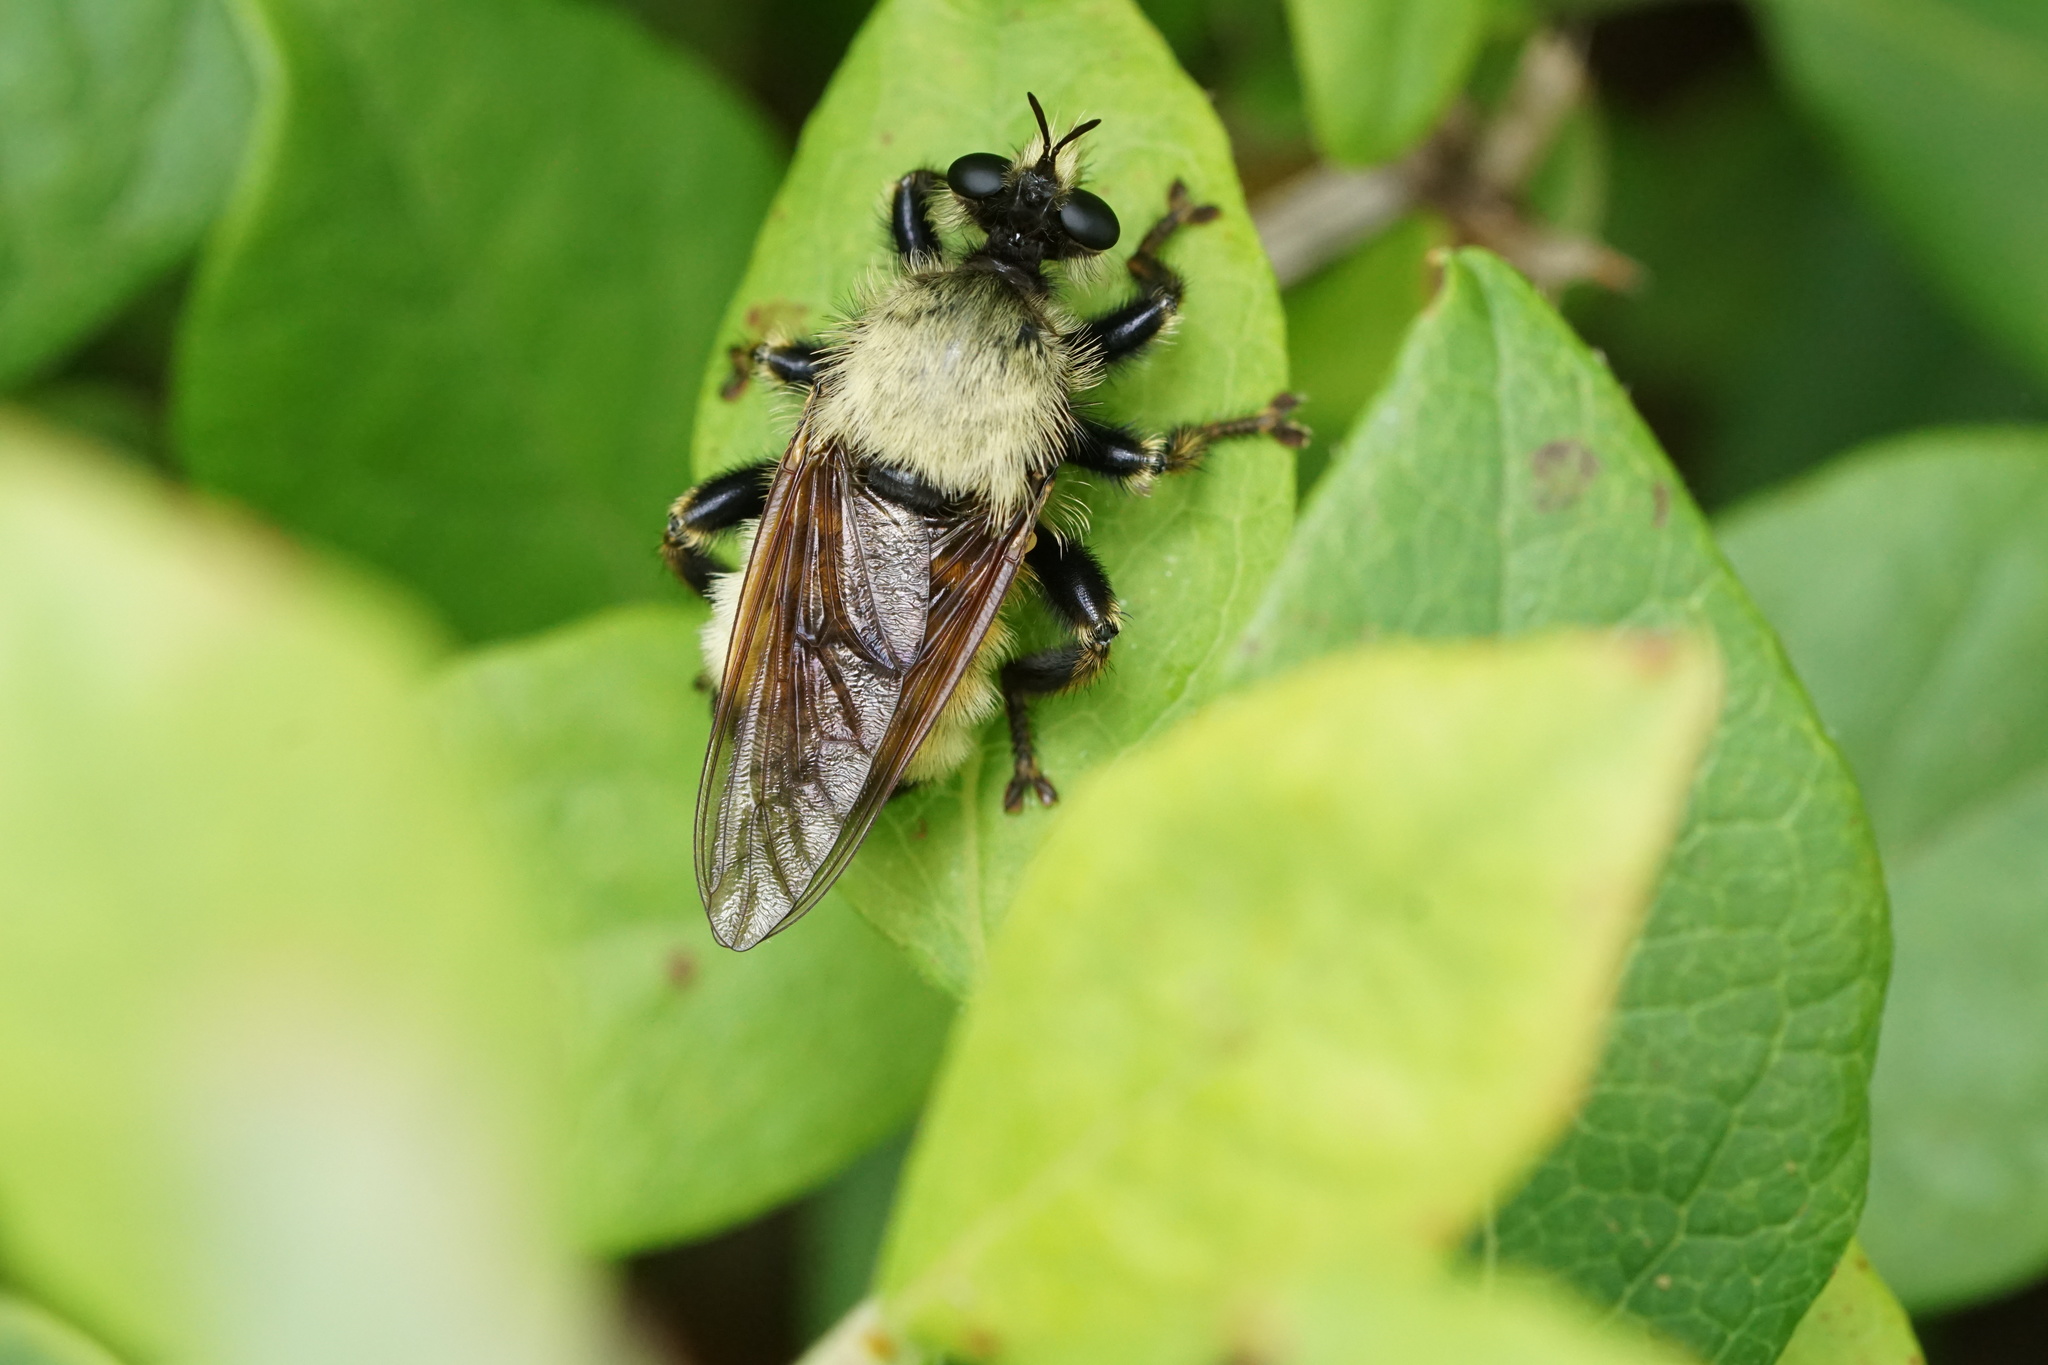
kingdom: Animalia
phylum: Arthropoda
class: Insecta
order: Diptera
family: Asilidae
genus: Laphria
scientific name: Laphria champlainii
